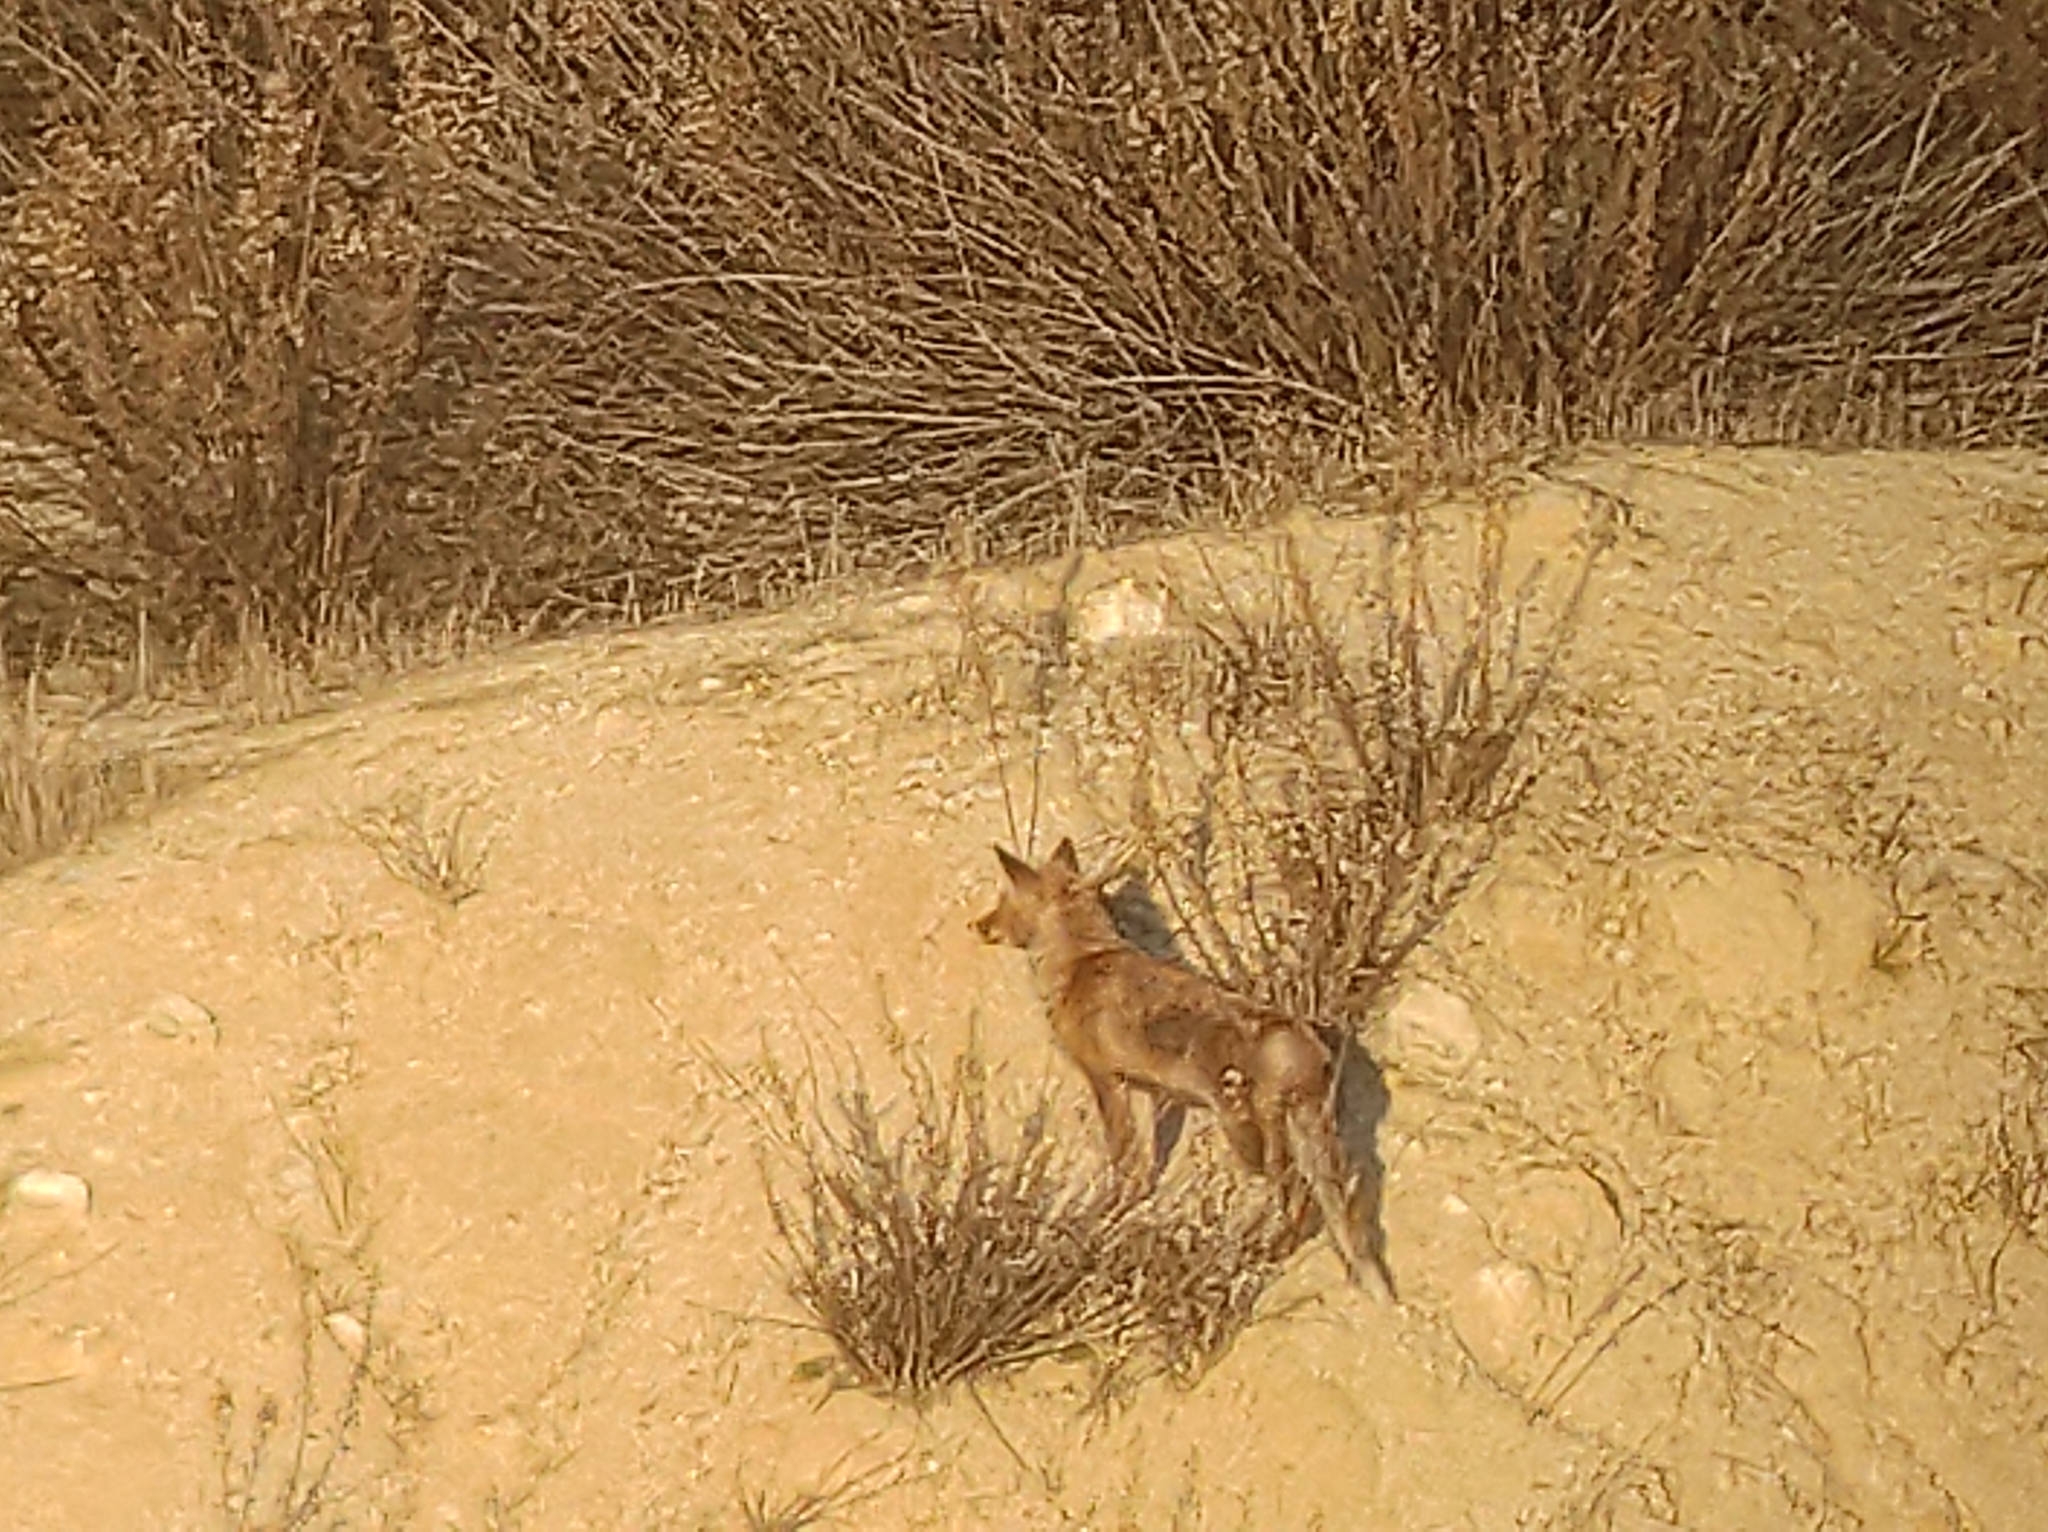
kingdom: Animalia
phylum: Chordata
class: Mammalia
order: Carnivora
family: Canidae
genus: Vulpes
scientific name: Vulpes vulpes
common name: Red fox
